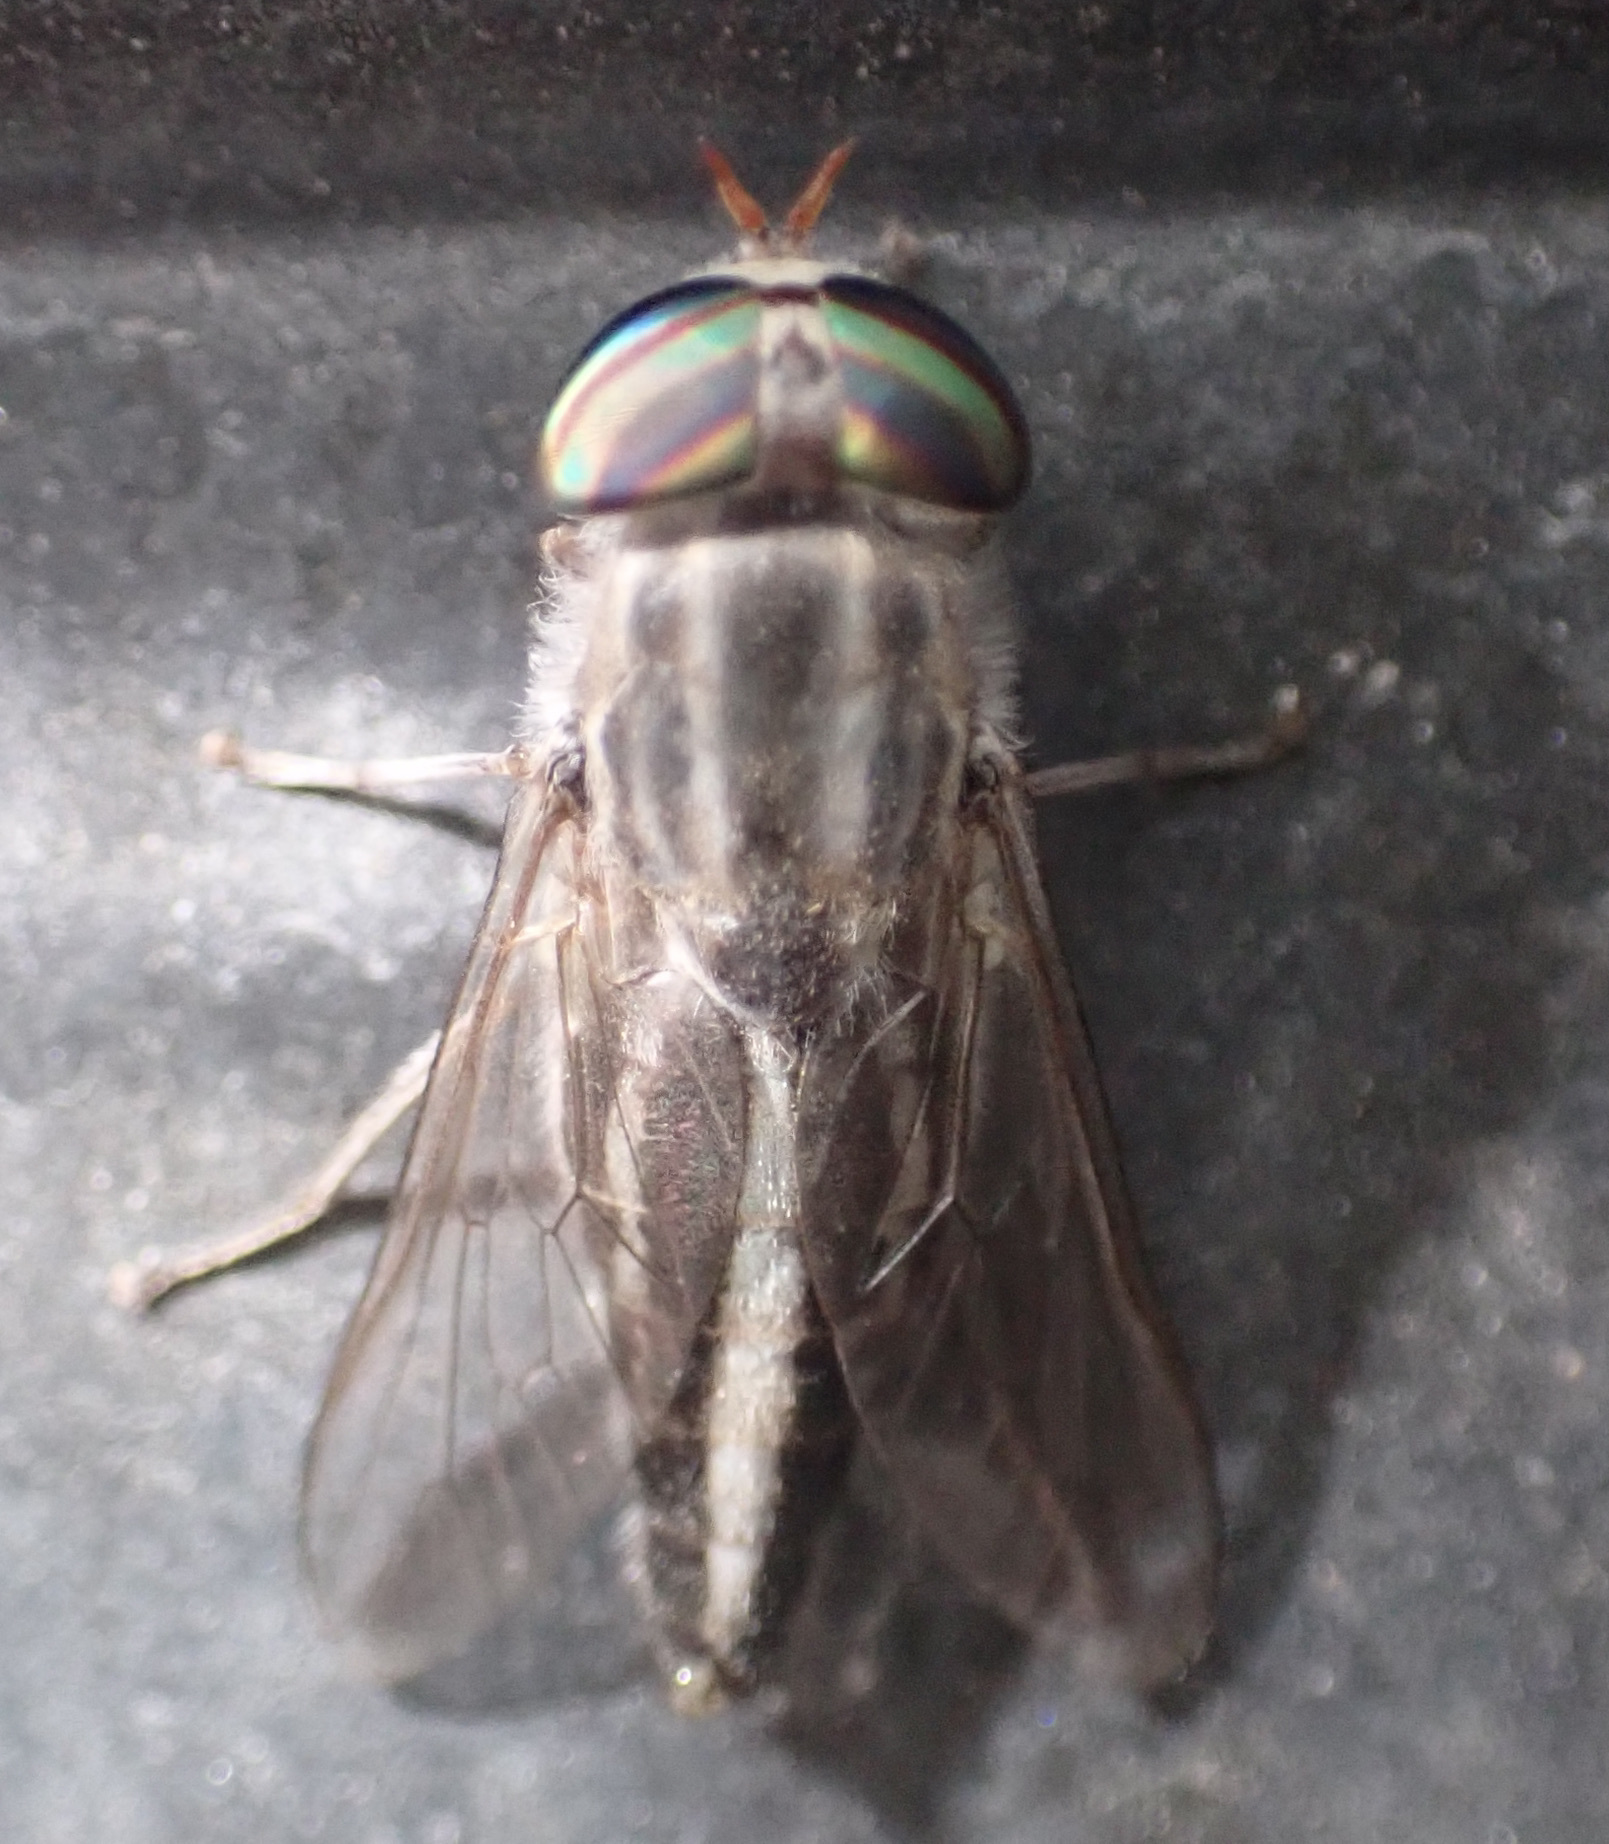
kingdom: Animalia
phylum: Arthropoda
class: Insecta
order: Diptera
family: Tabanidae
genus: Tabanus
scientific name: Tabanus gratus
